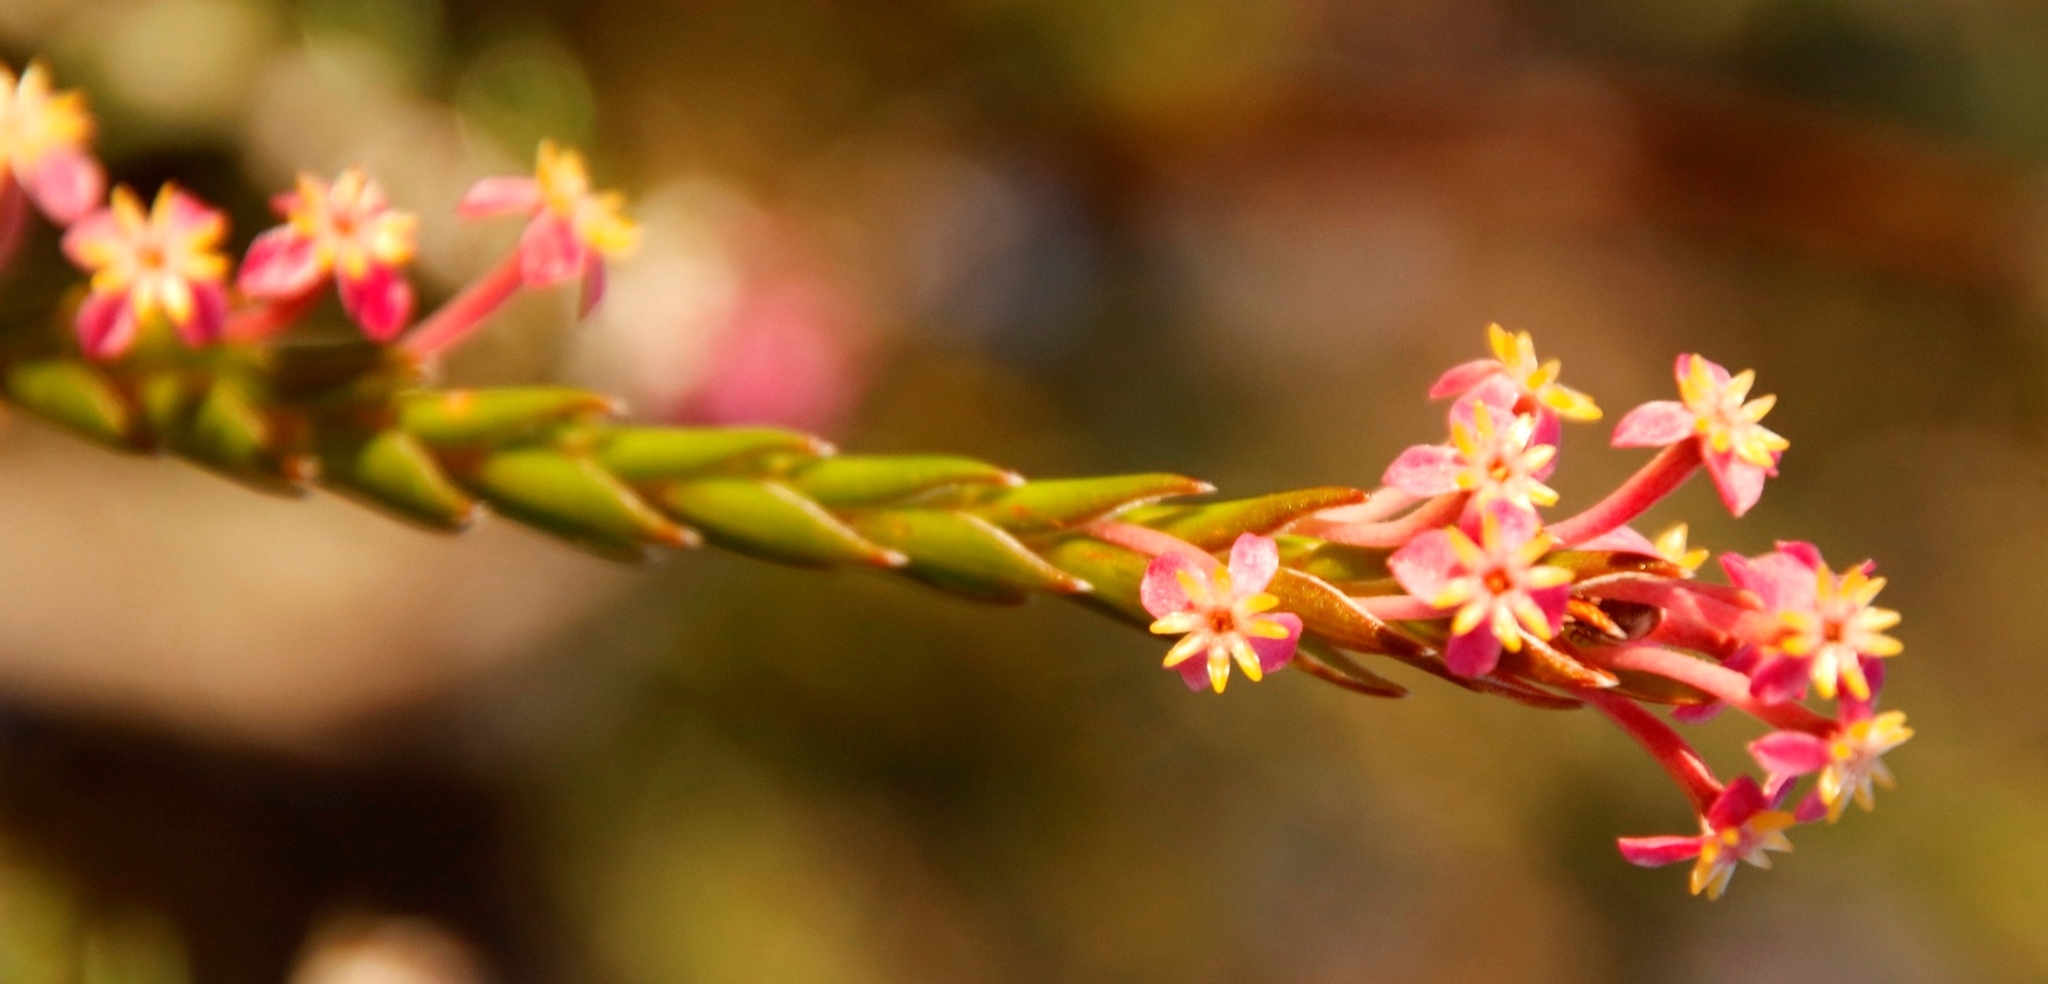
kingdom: Plantae
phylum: Tracheophyta
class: Magnoliopsida
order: Malvales
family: Thymelaeaceae
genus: Struthiola
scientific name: Struthiola ciliata
